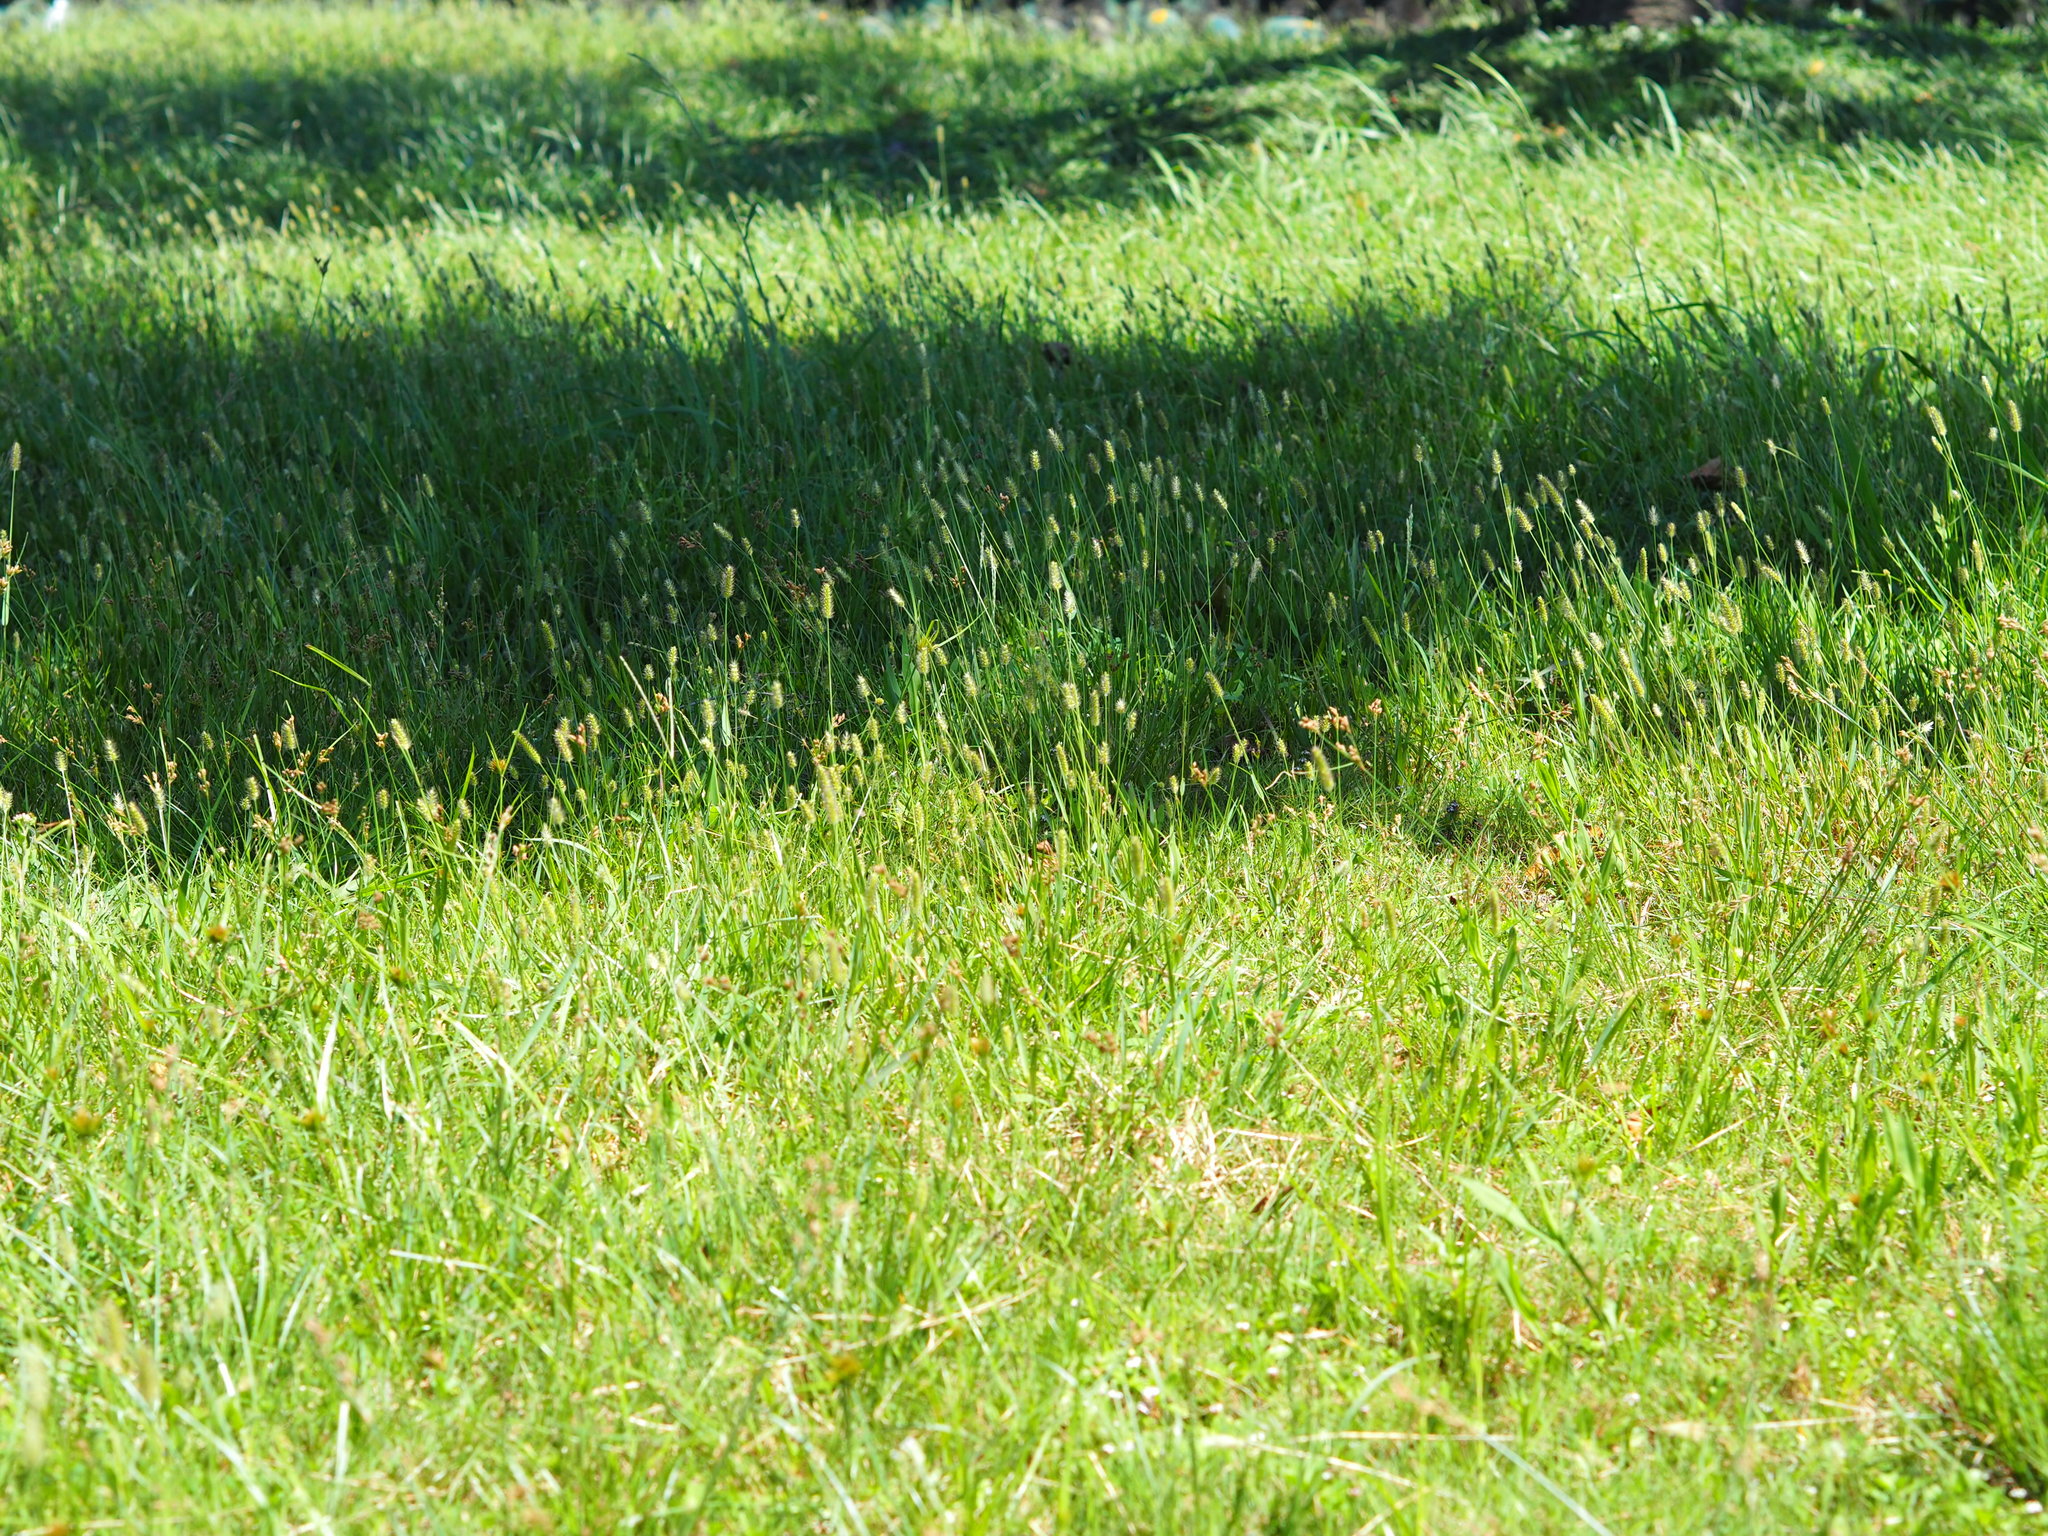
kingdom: Plantae
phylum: Tracheophyta
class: Liliopsida
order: Poales
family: Poaceae
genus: Setaria
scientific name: Setaria parviflora
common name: Knotroot bristle-grass
